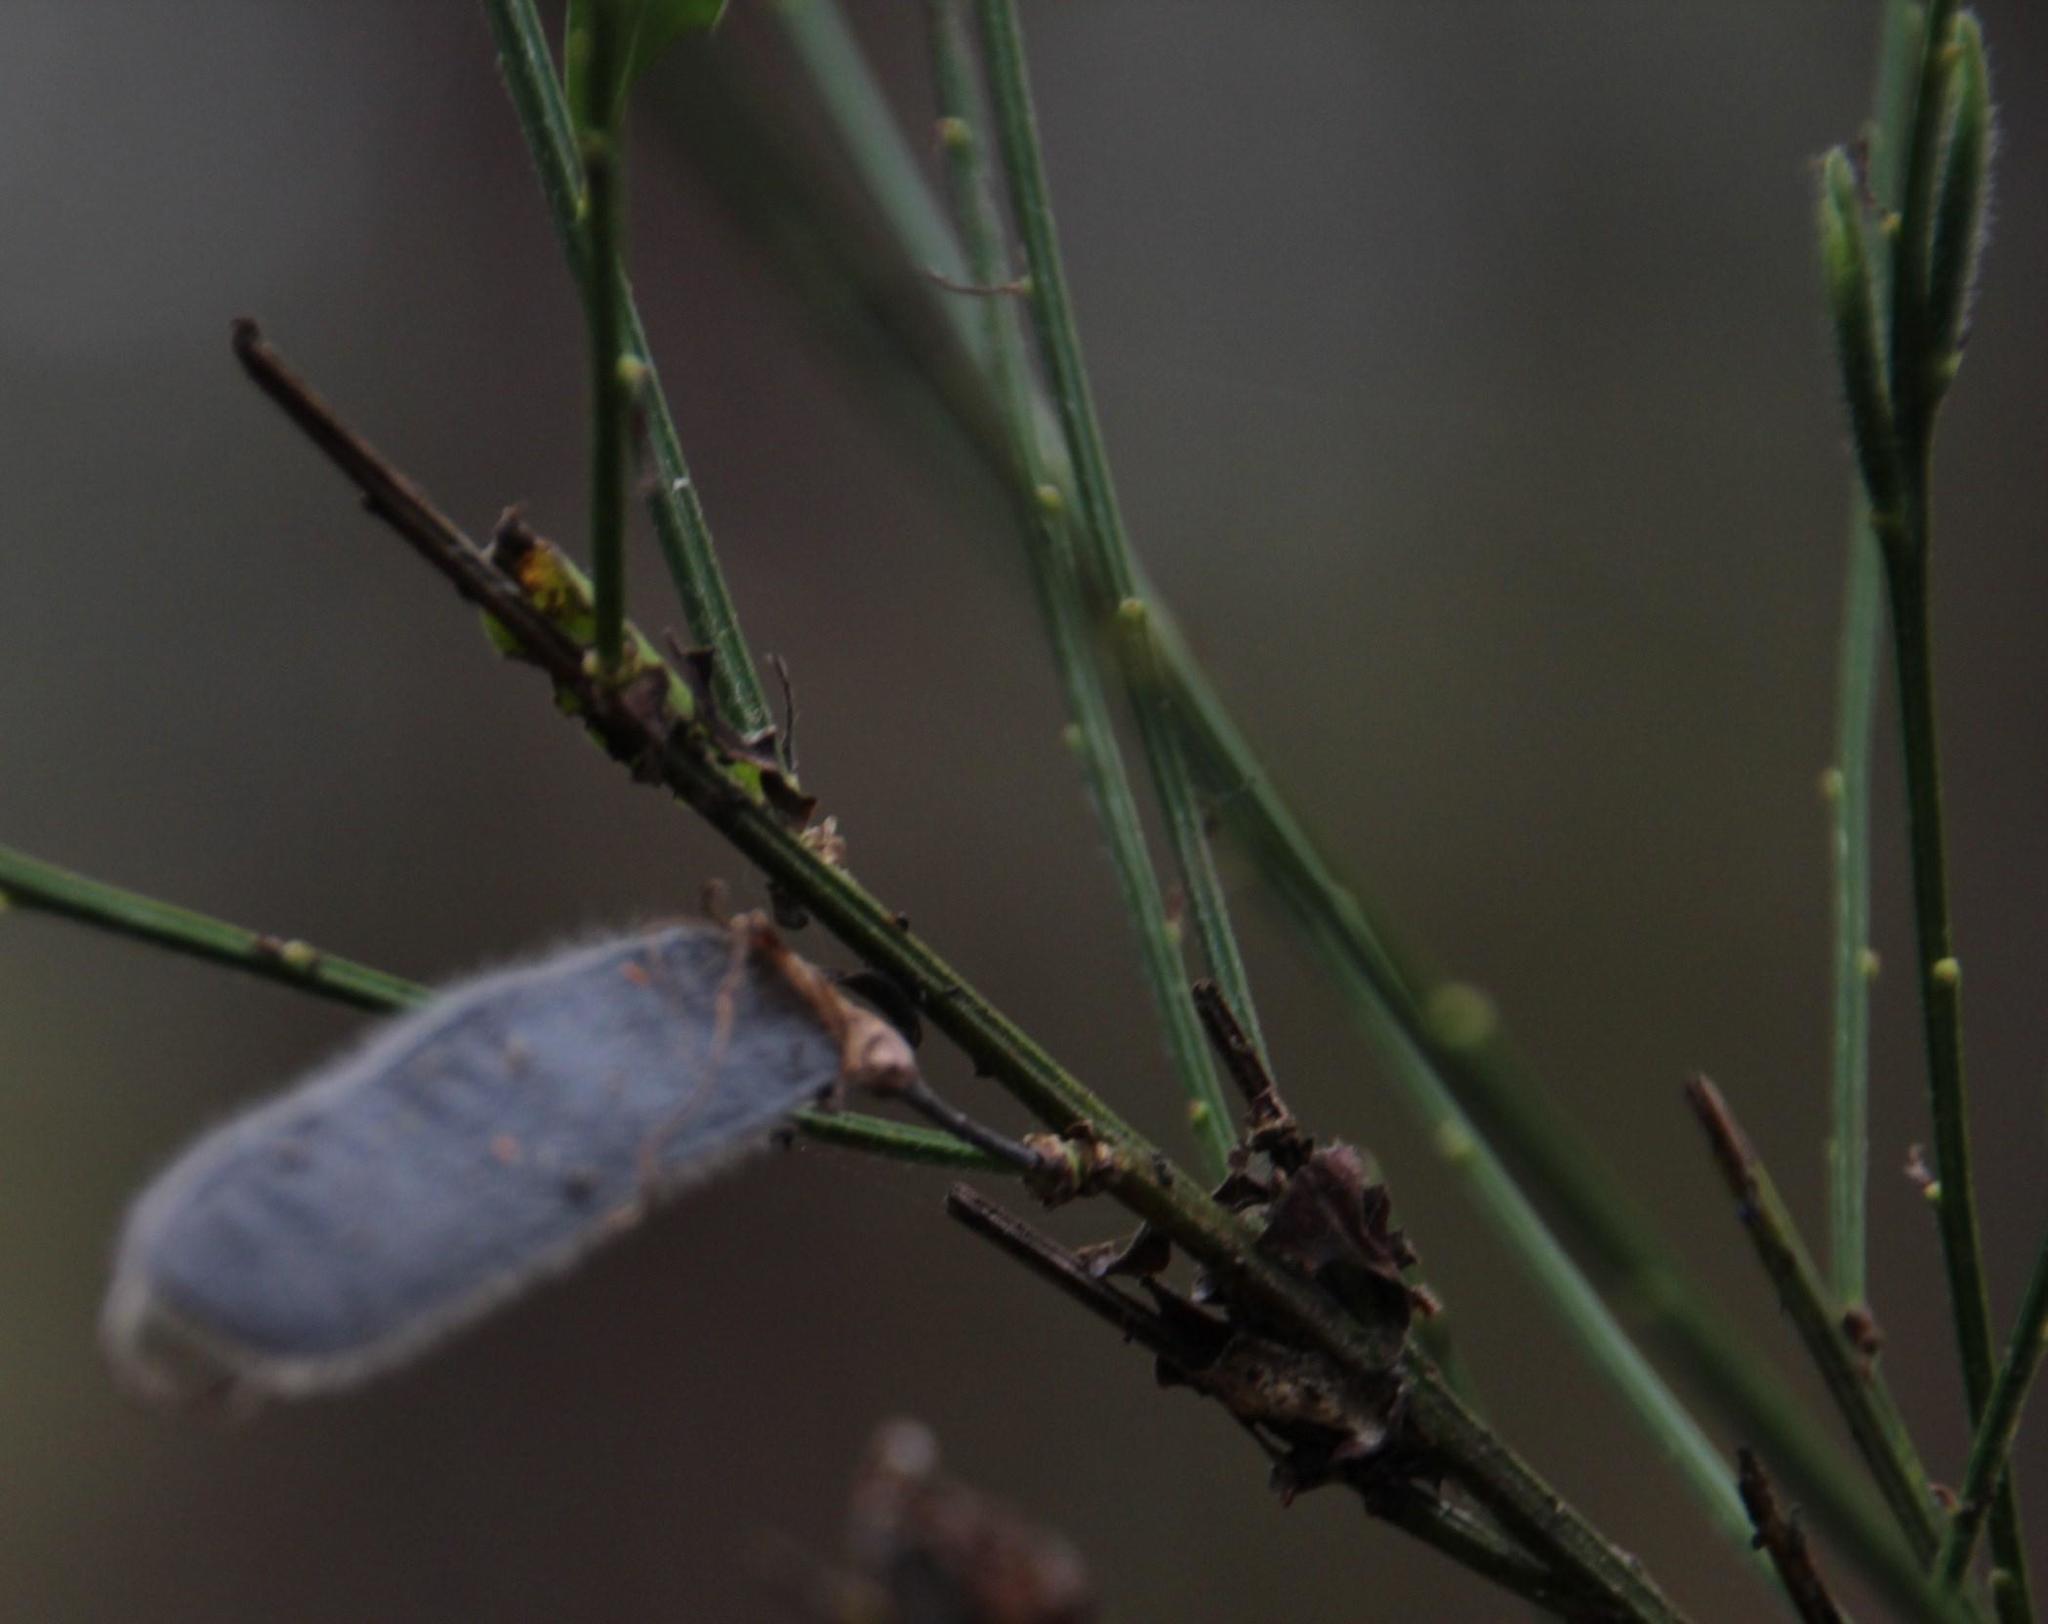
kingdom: Plantae
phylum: Tracheophyta
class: Magnoliopsida
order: Fabales
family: Fabaceae
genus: Cytisus
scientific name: Cytisus striatus
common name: Hairy-fruited broom
